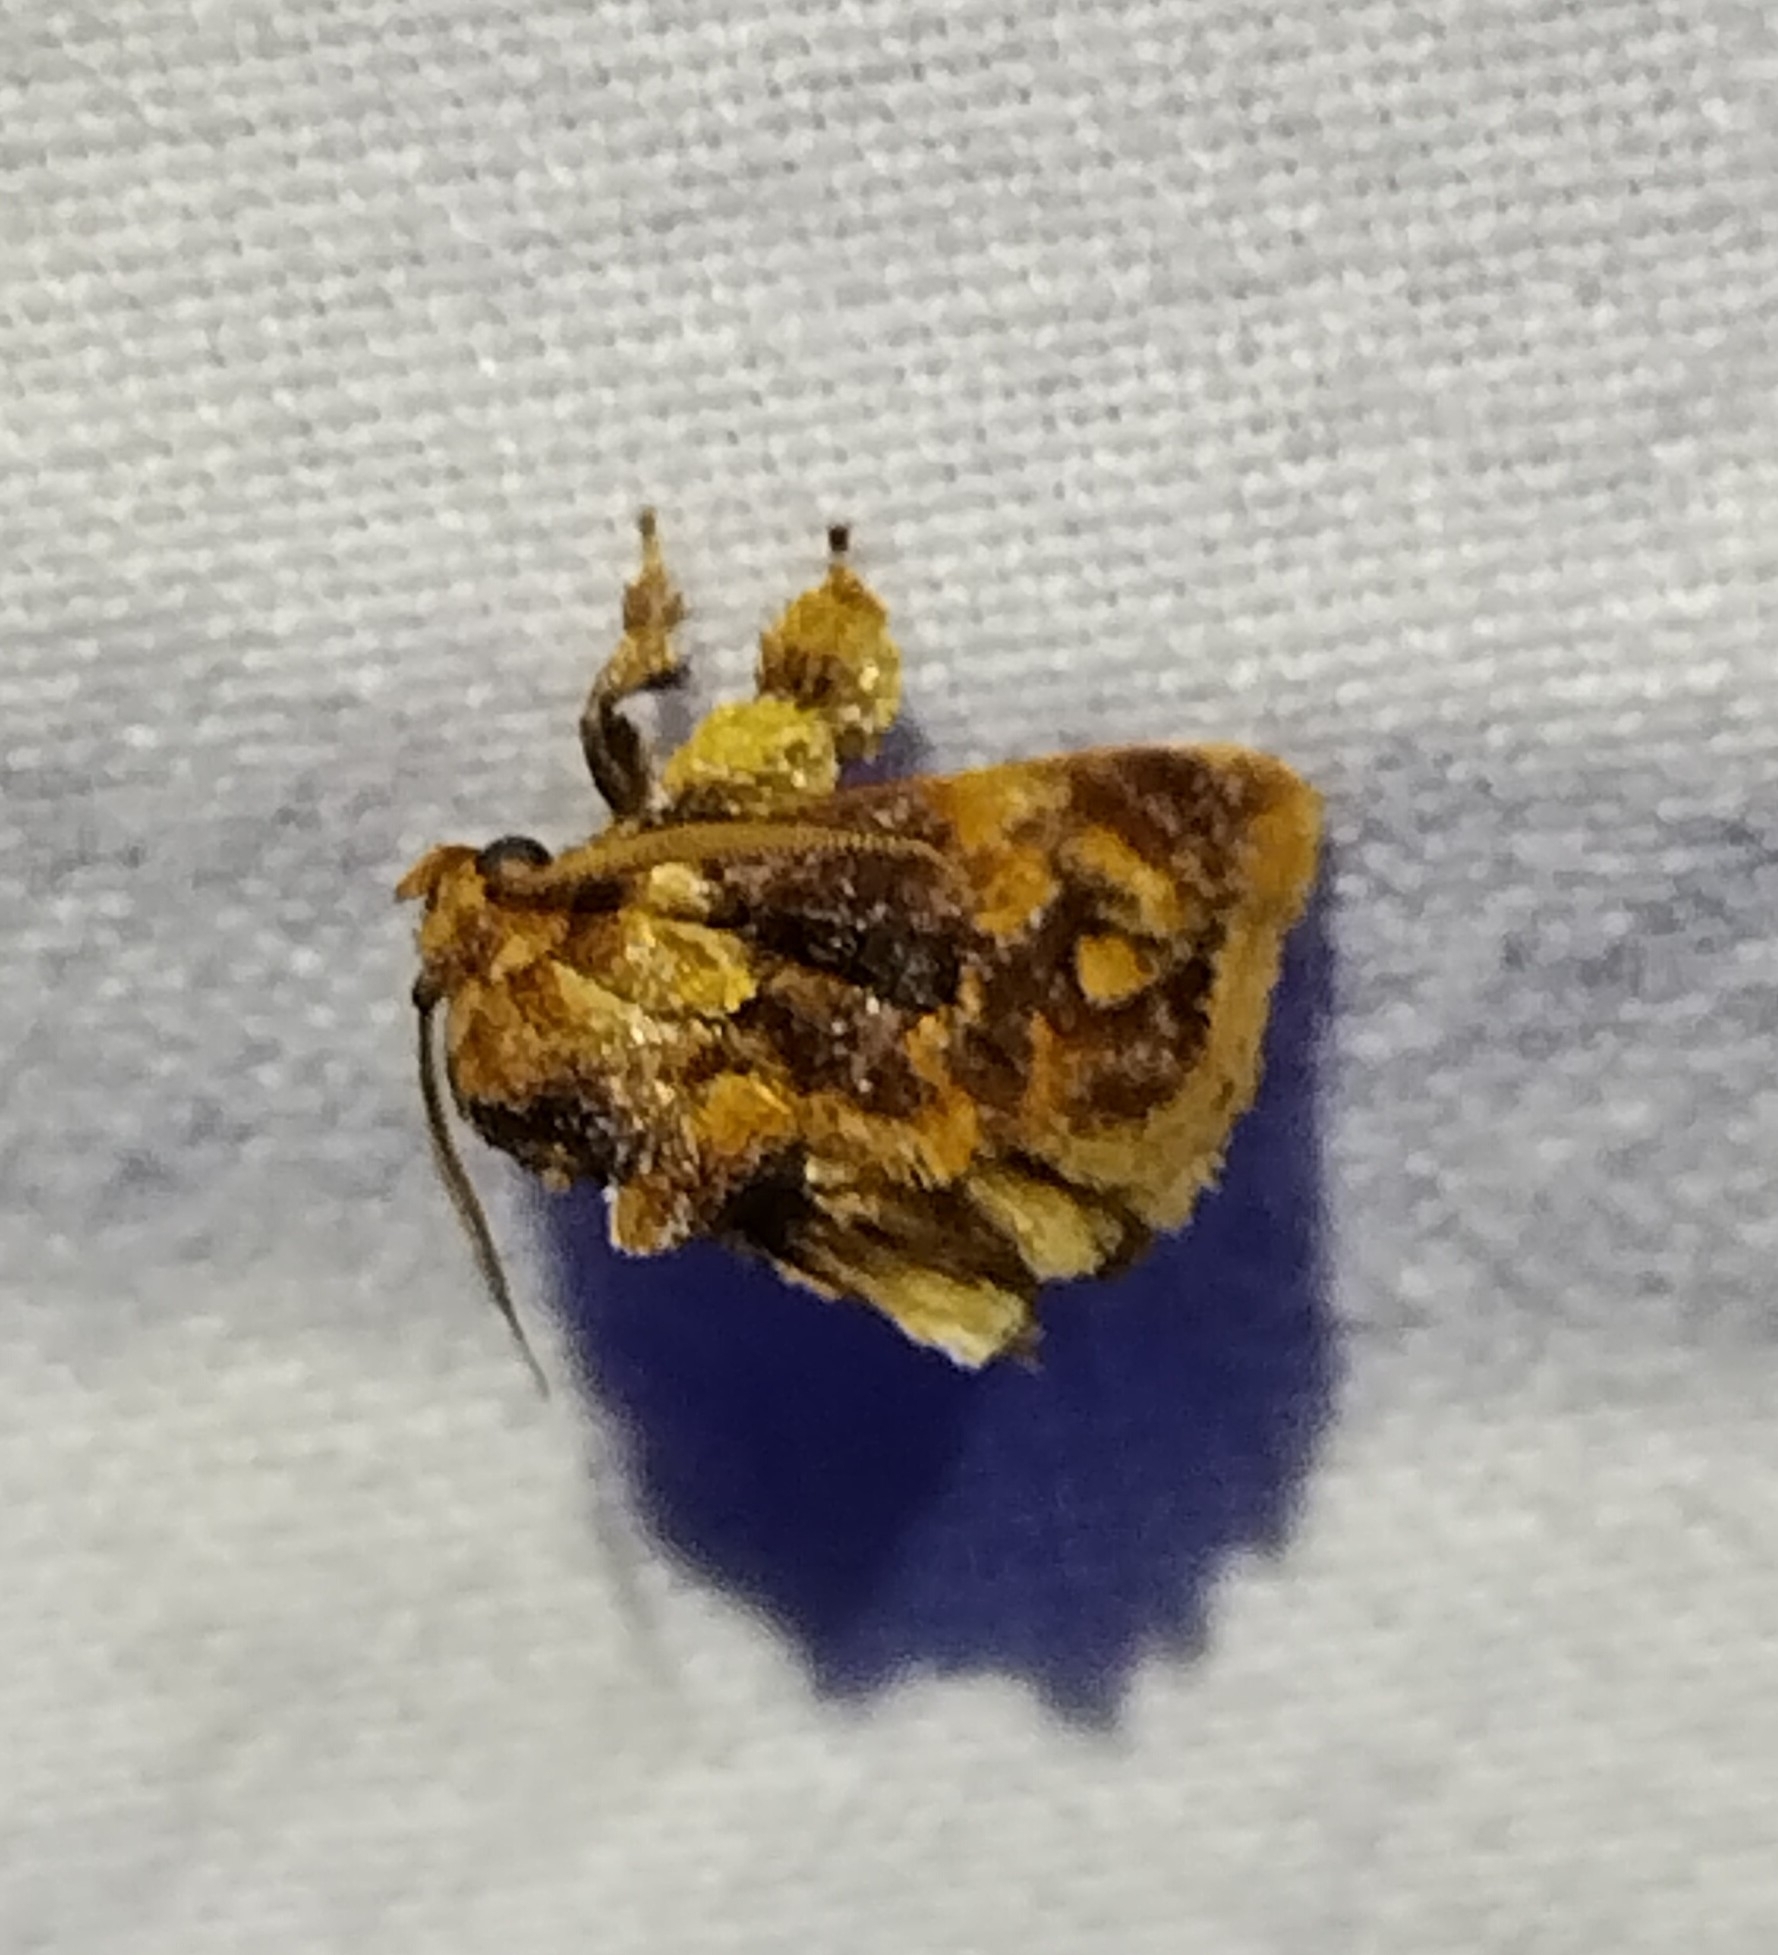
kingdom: Animalia
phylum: Arthropoda
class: Insecta
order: Lepidoptera
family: Limacodidae
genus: Isochaetes
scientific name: Isochaetes beutenmuelleri
